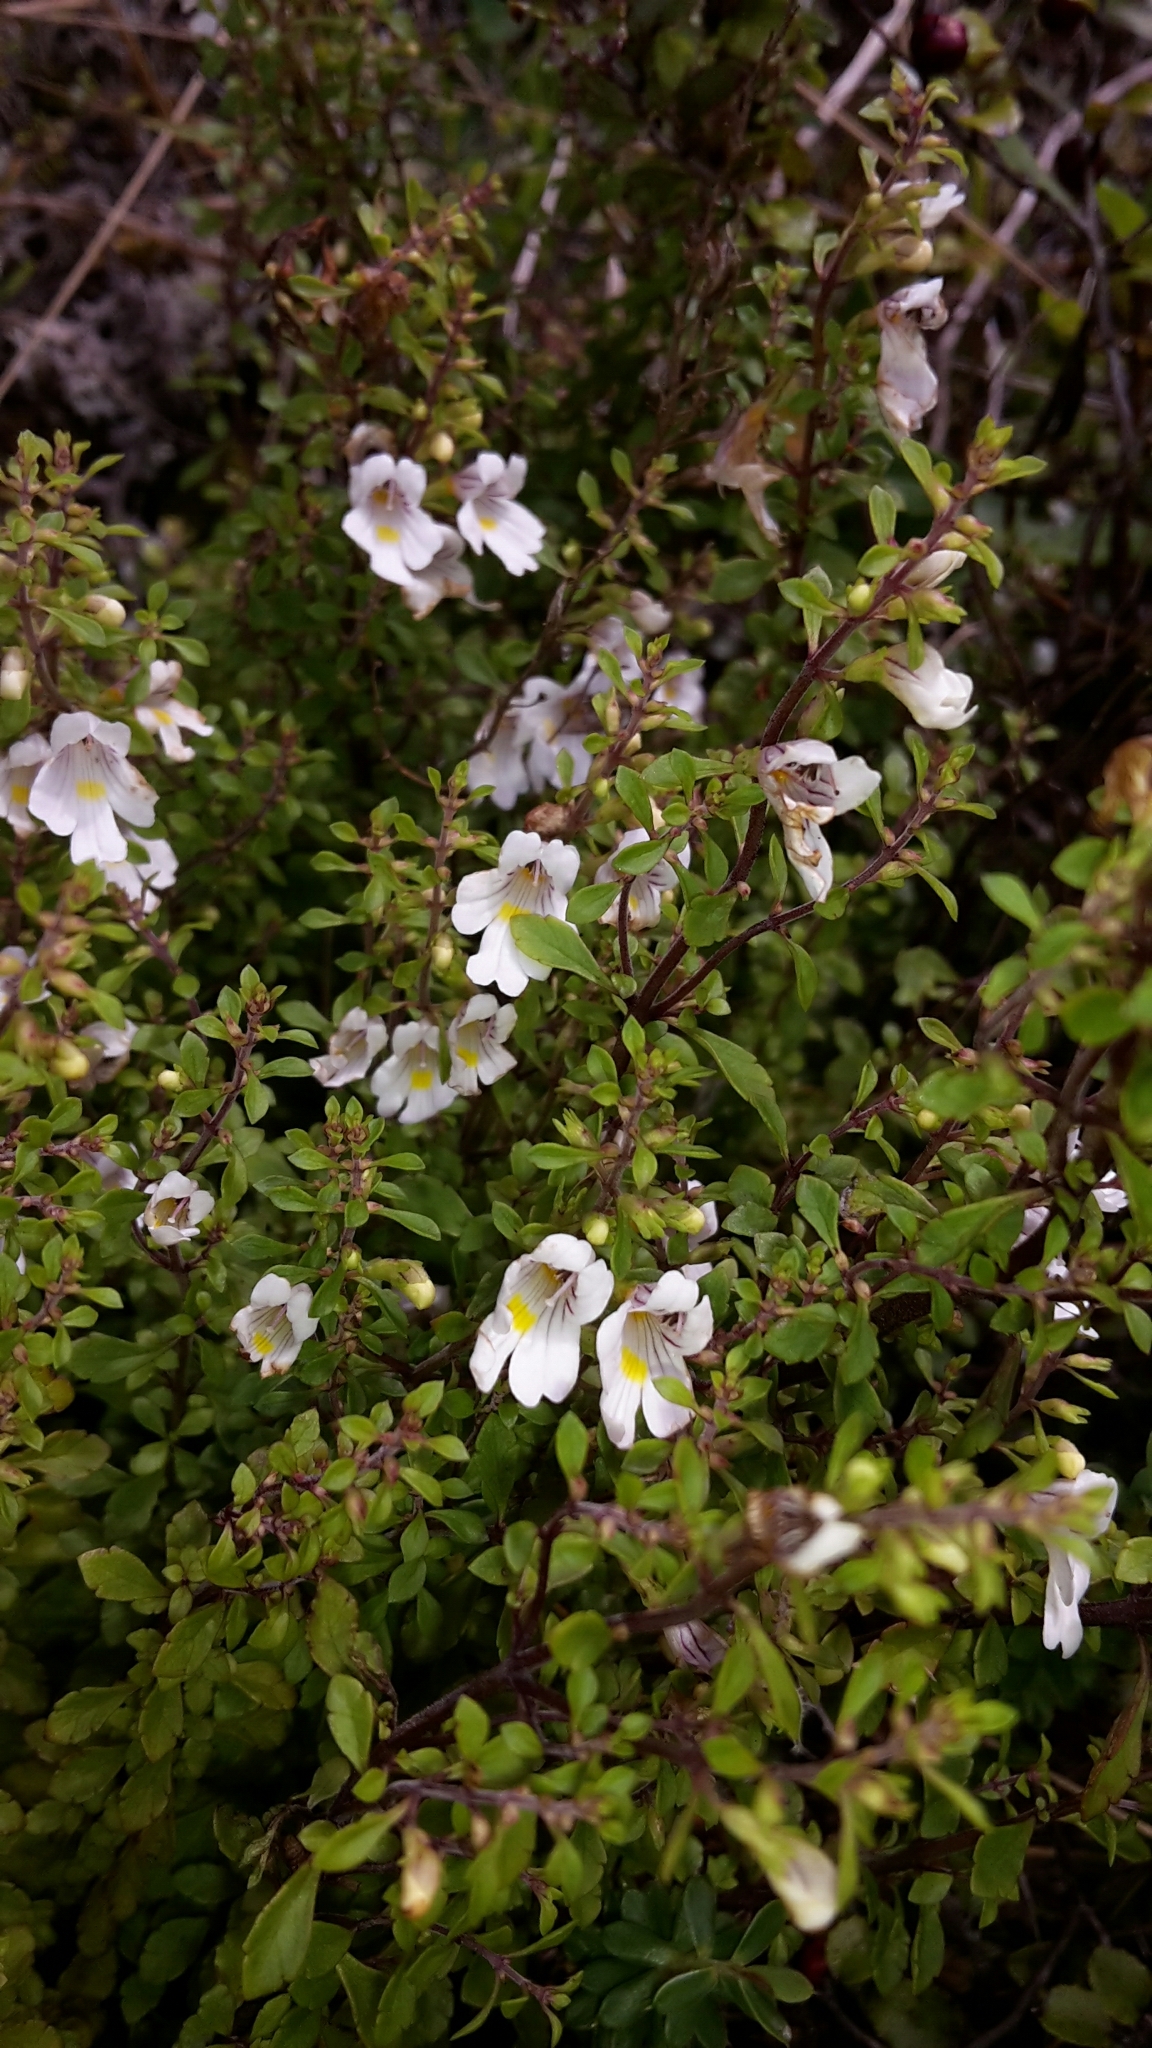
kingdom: Plantae
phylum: Tracheophyta
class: Magnoliopsida
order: Lamiales
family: Orobanchaceae
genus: Euphrasia
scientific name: Euphrasia cuneata
